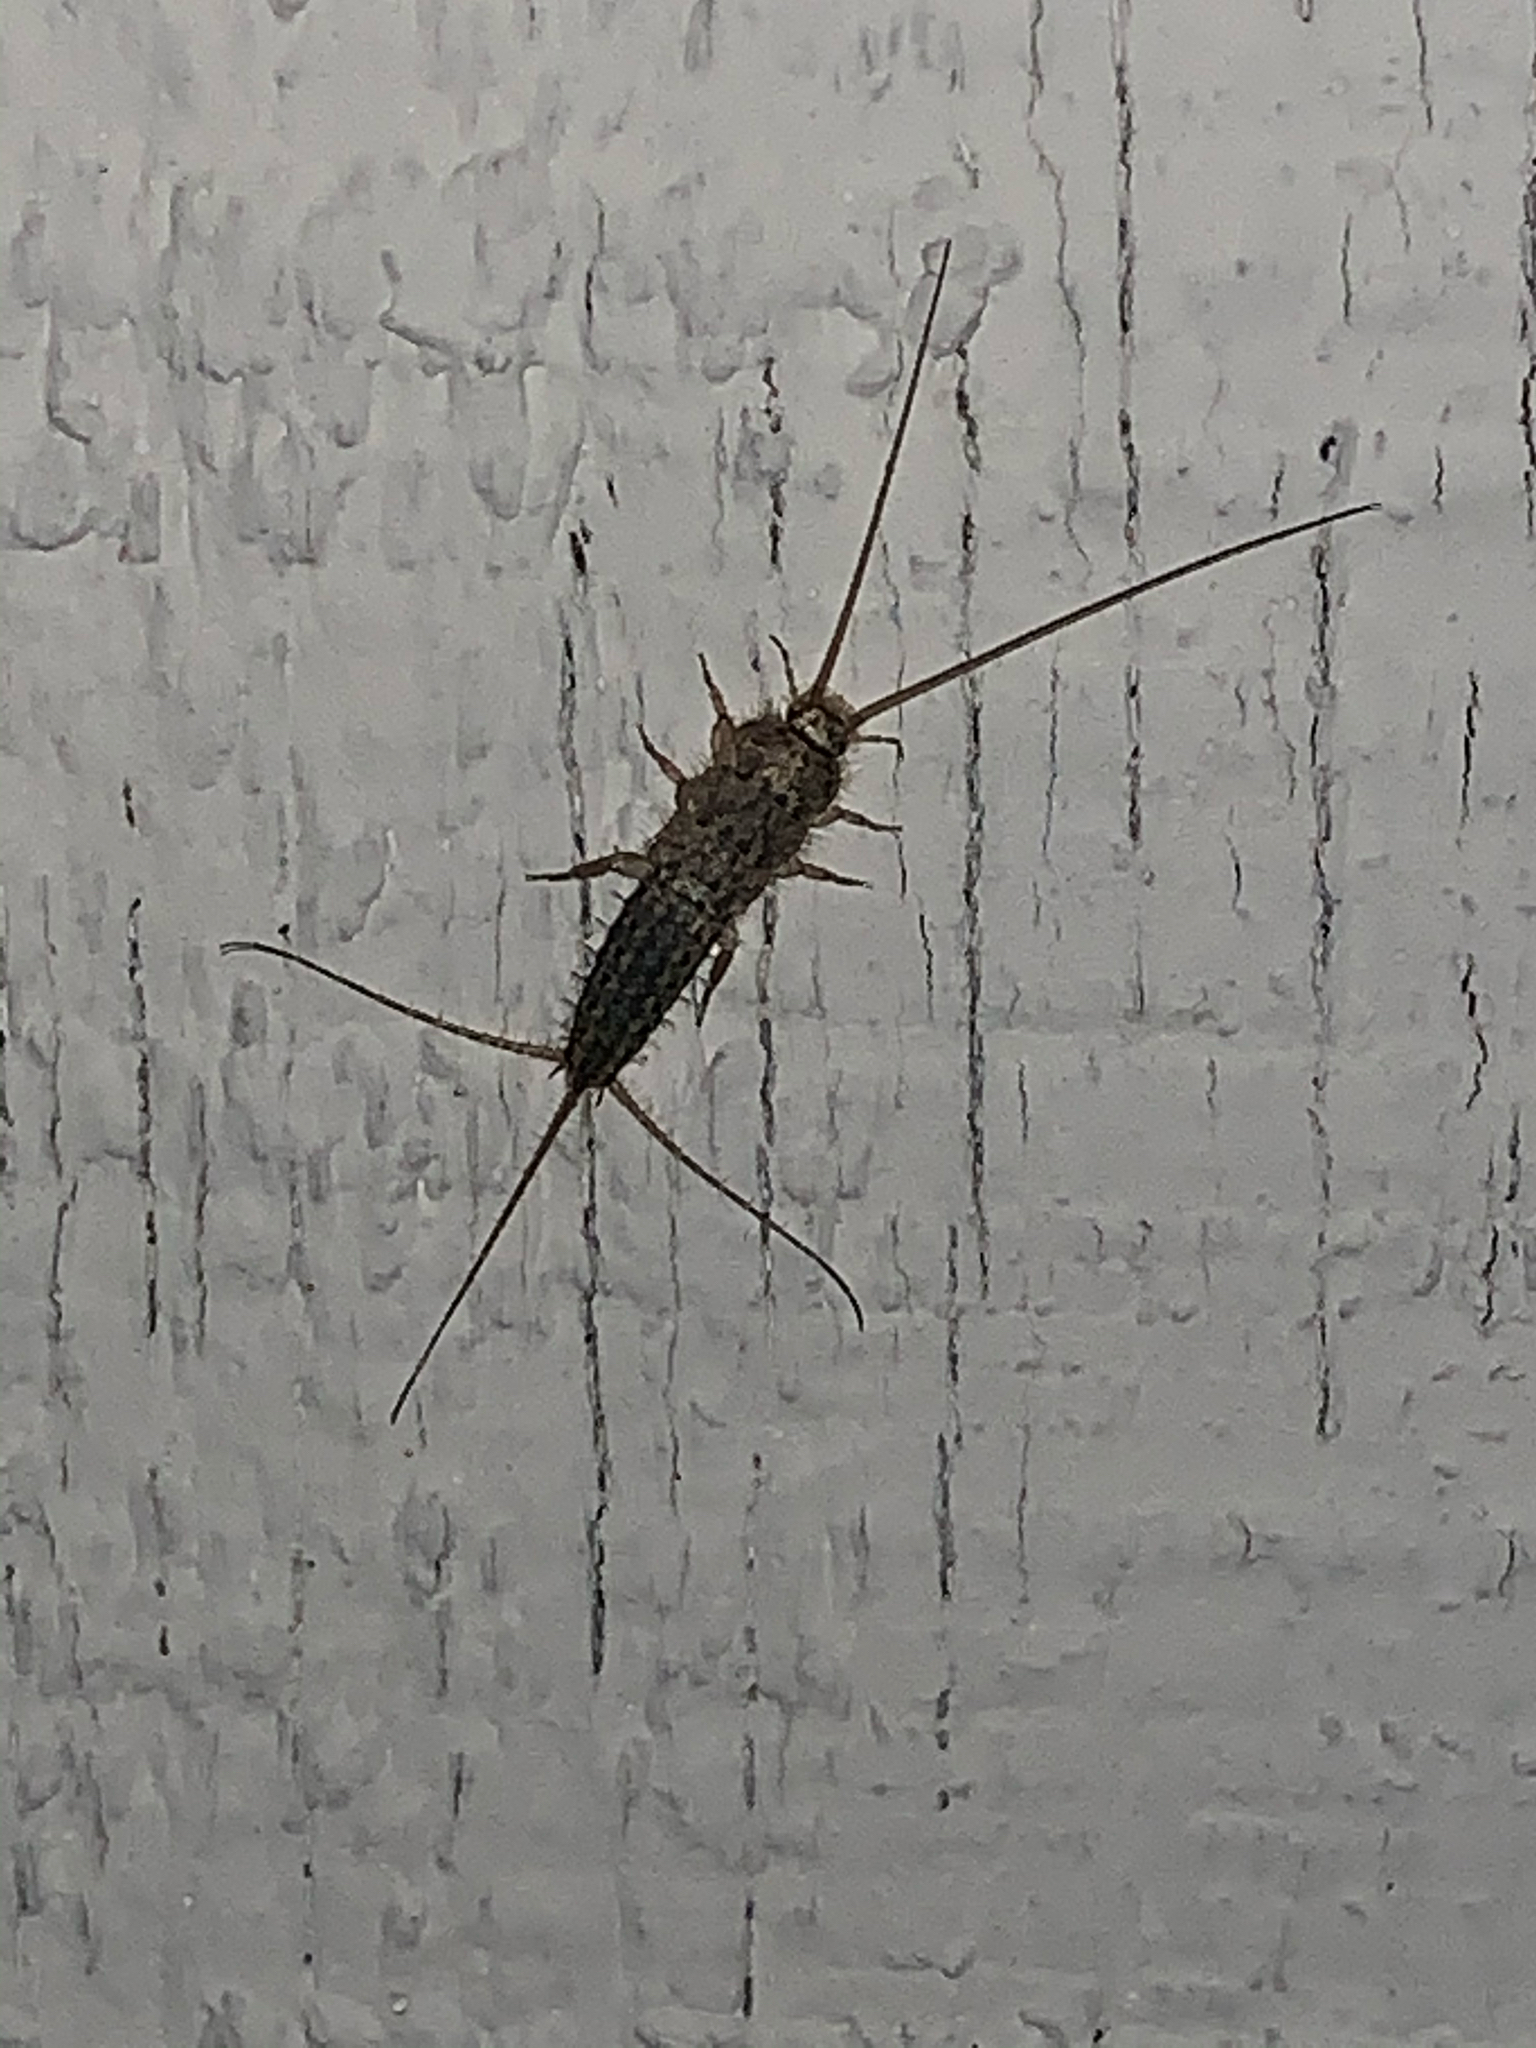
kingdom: Animalia
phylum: Arthropoda
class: Insecta
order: Zygentoma
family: Lepismatidae
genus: Ctenolepisma
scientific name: Ctenolepisma lineata
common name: Four-lined silverfish
